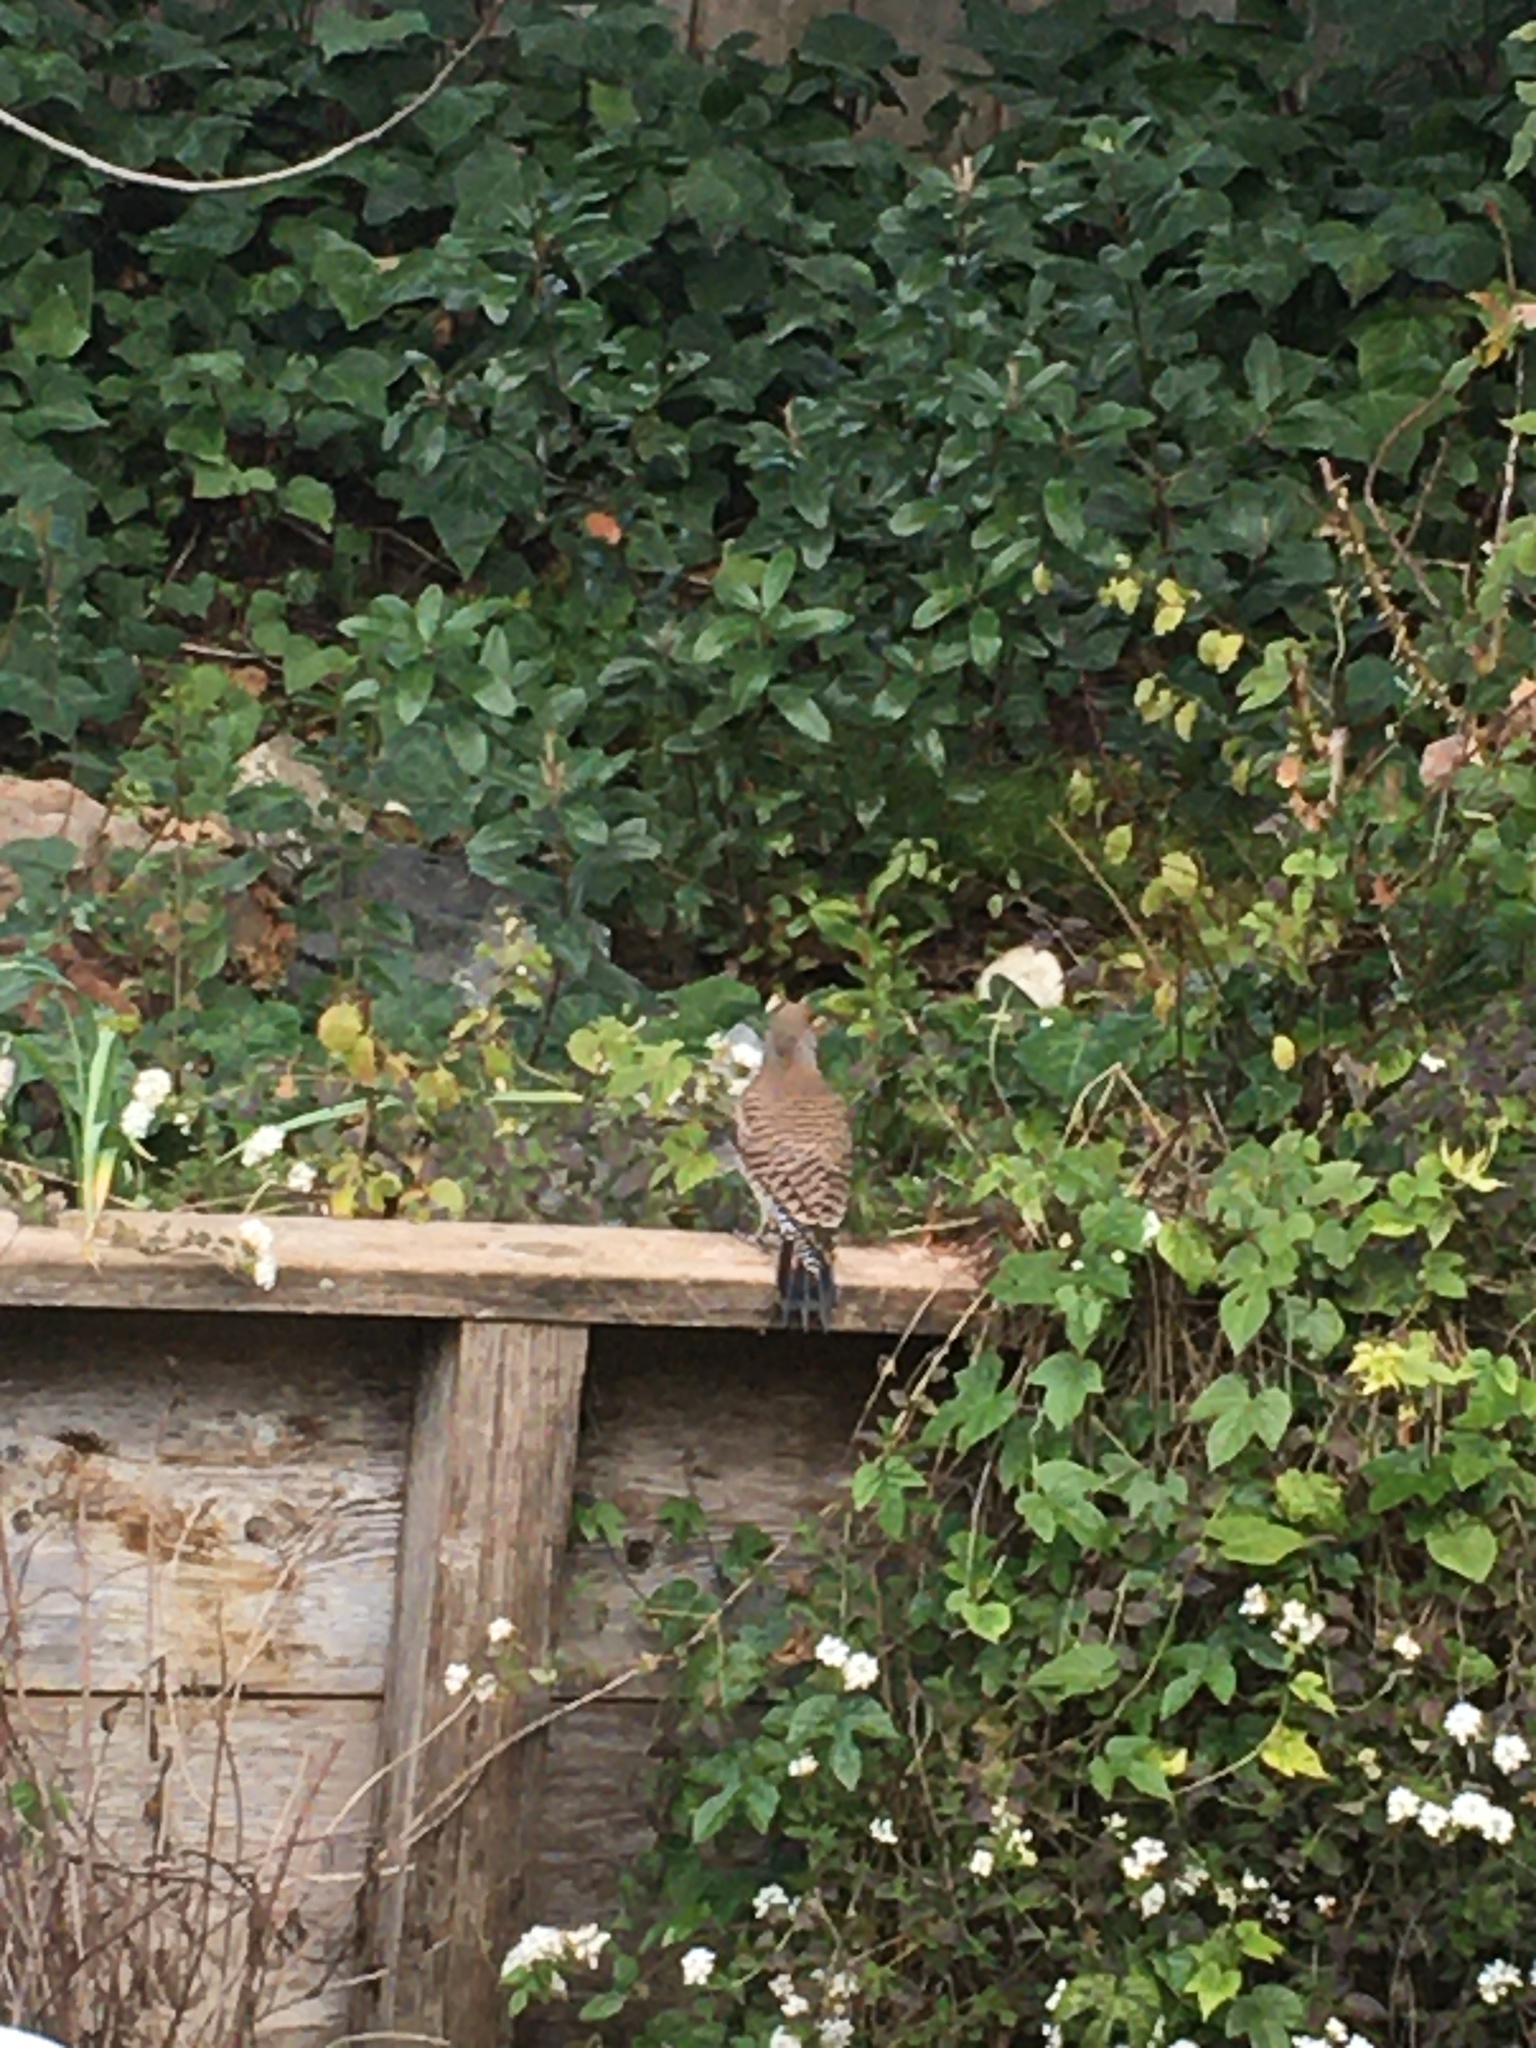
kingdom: Animalia
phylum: Chordata
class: Aves
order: Piciformes
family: Picidae
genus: Colaptes
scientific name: Colaptes auratus
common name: Northern flicker
